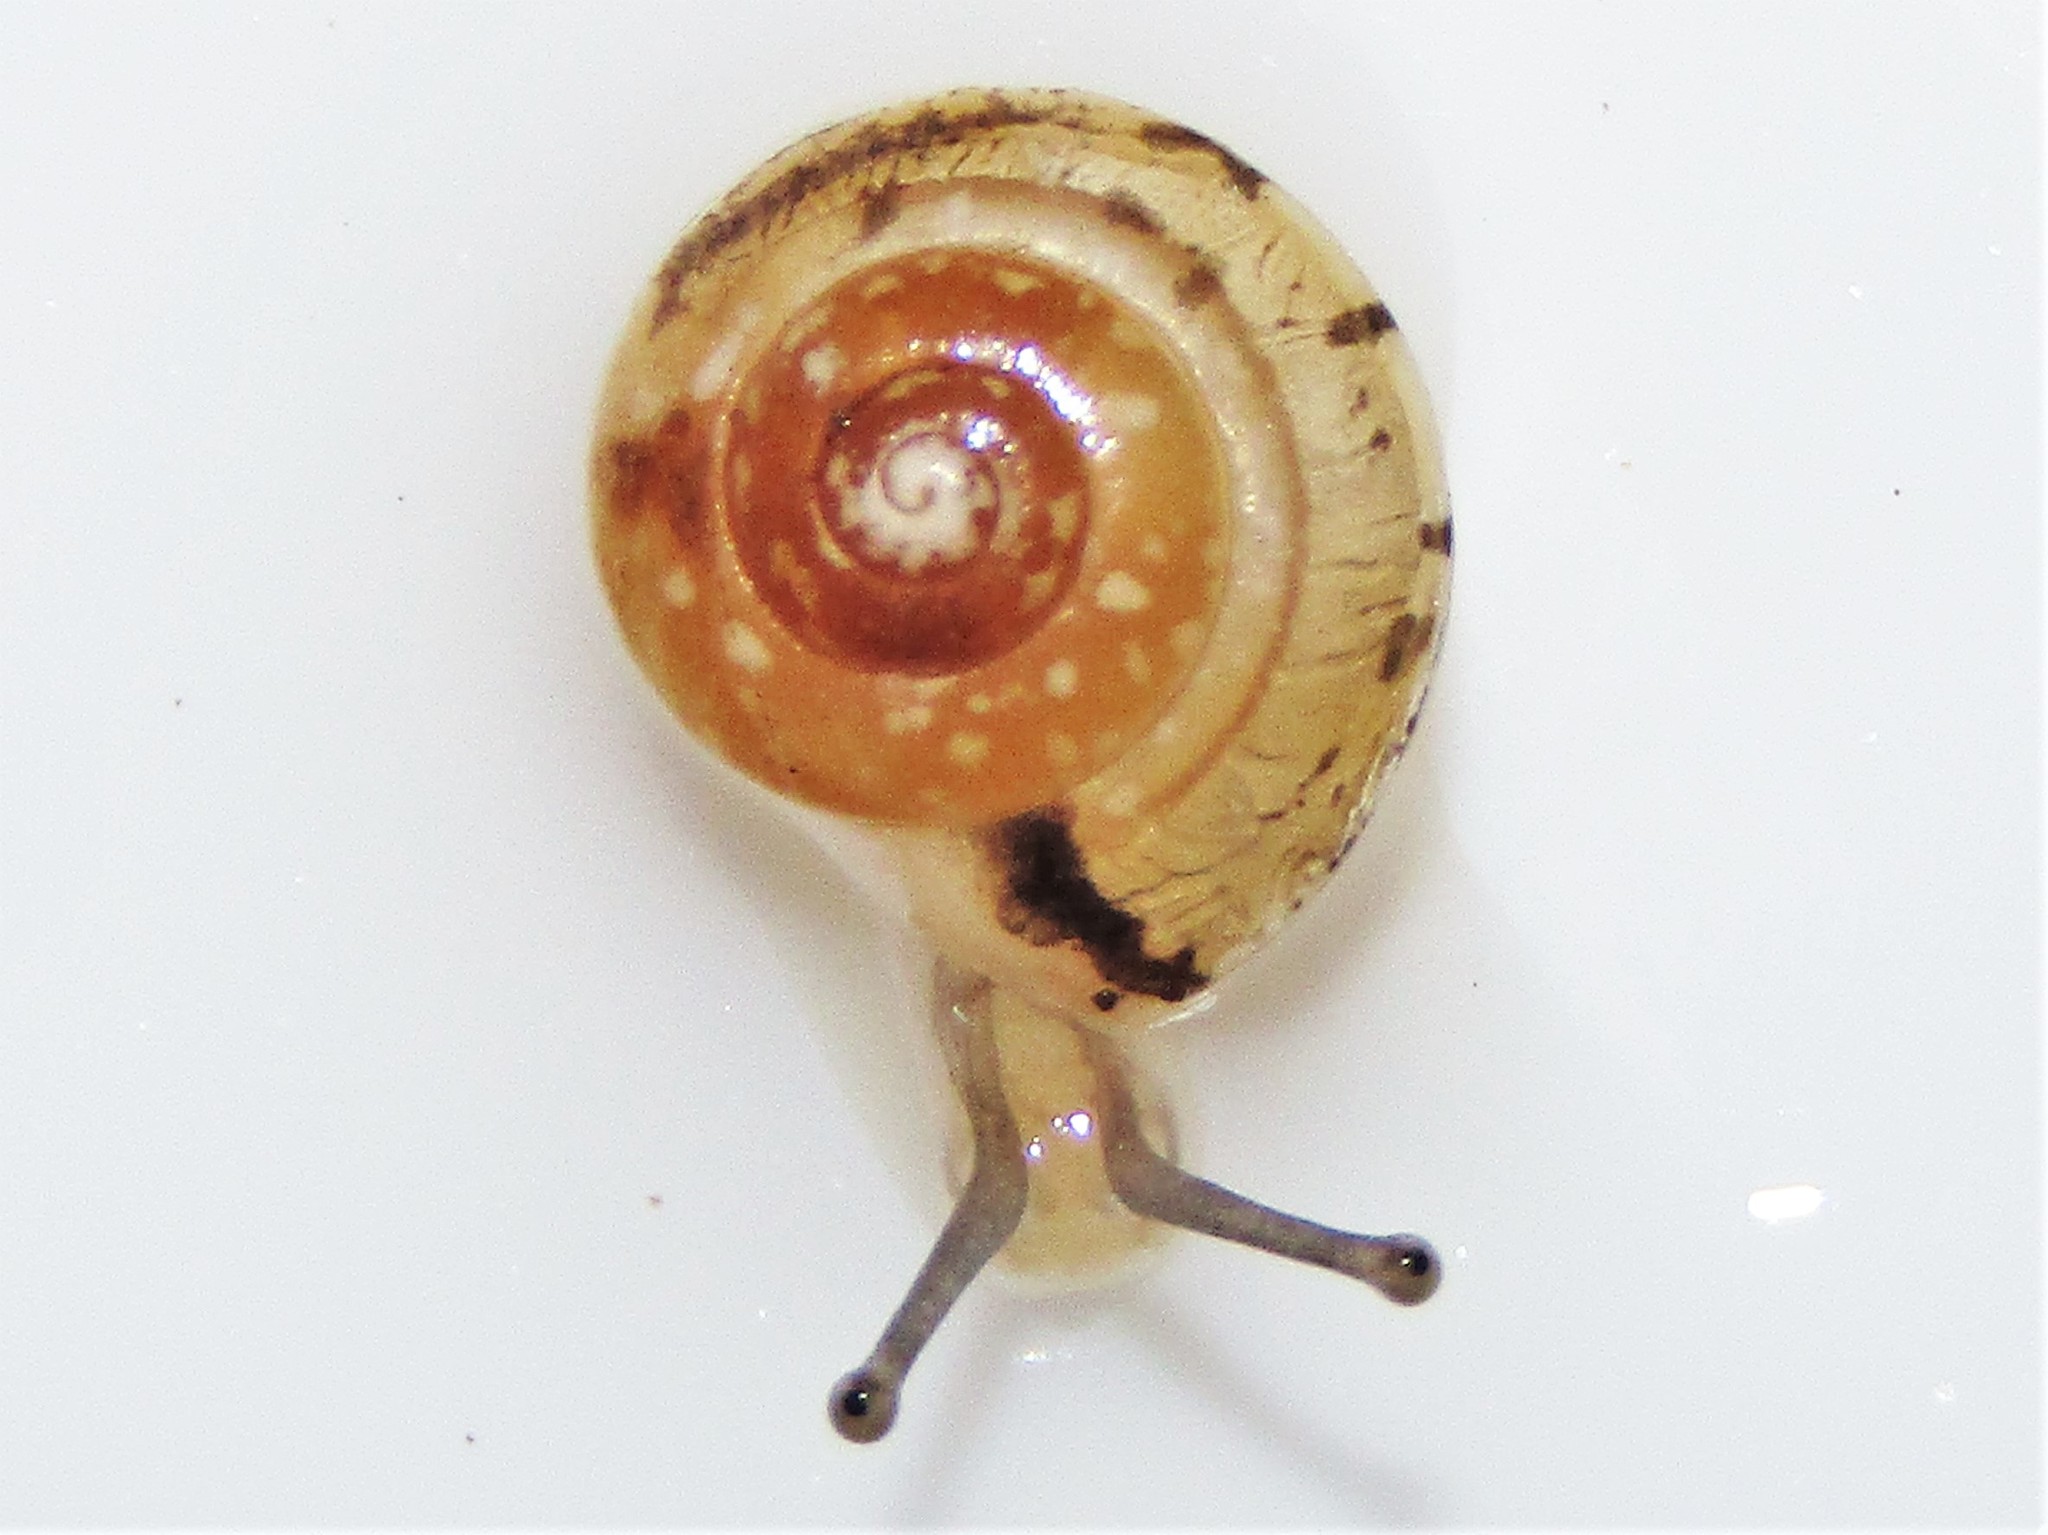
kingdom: Animalia
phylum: Mollusca
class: Gastropoda
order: Stylommatophora
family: Hygromiidae
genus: Hygromia
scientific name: Hygromia cinctella
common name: Girdled snail
